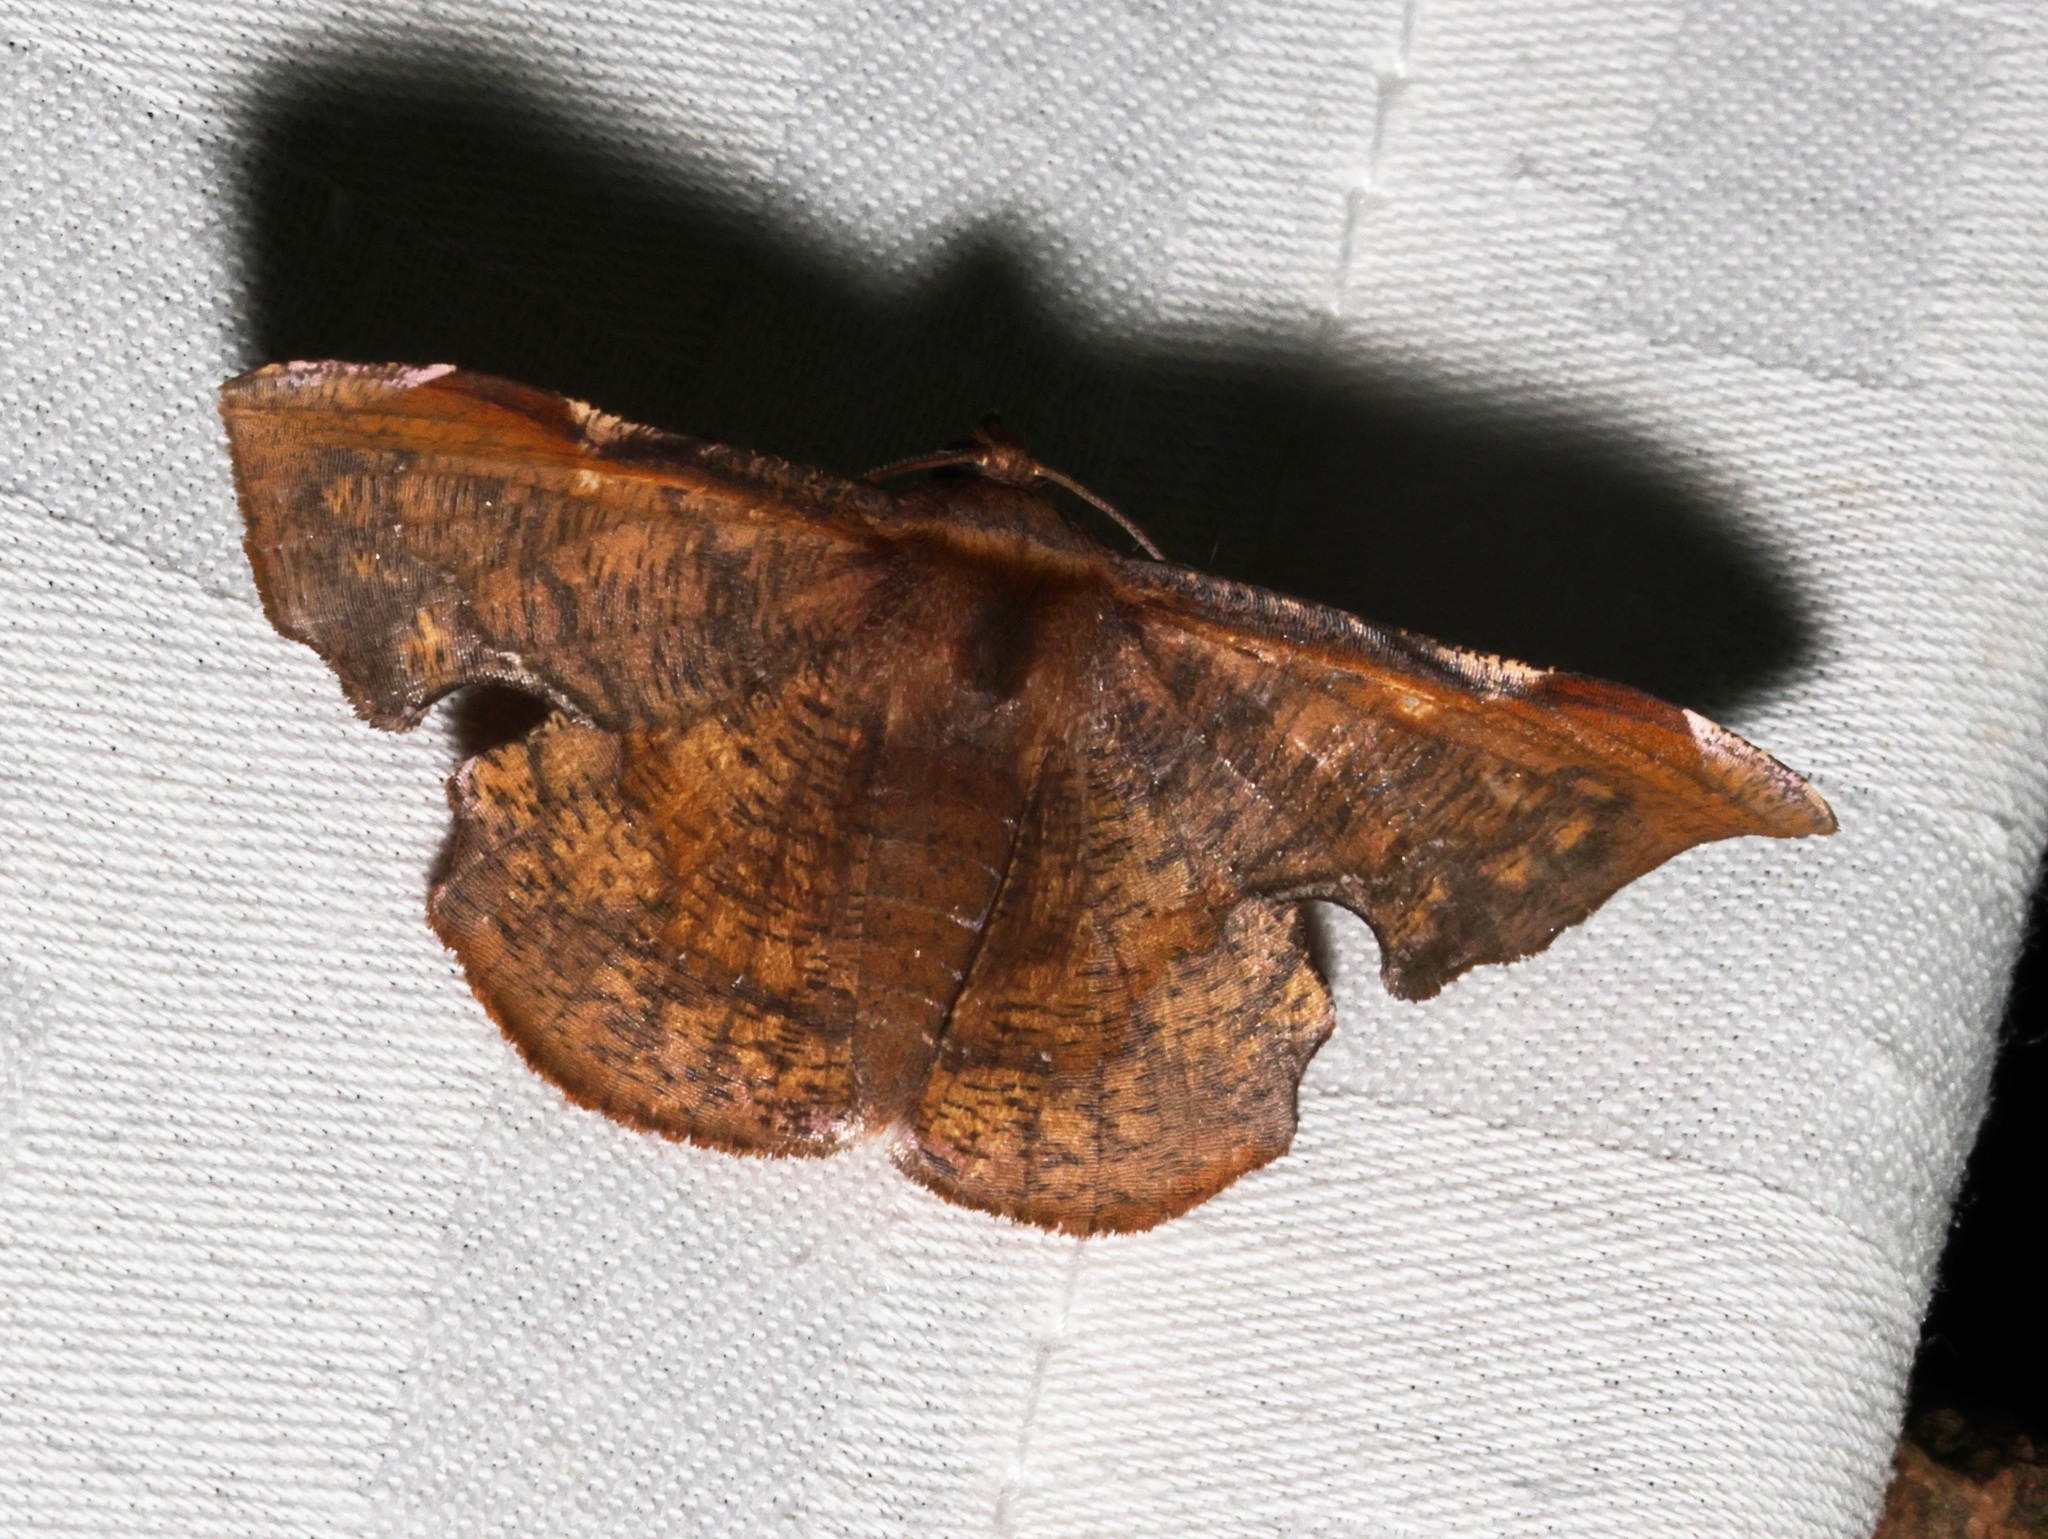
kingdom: Animalia
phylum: Arthropoda
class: Insecta
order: Lepidoptera
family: Geometridae
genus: Fascellina
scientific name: Fascellina chromataria
